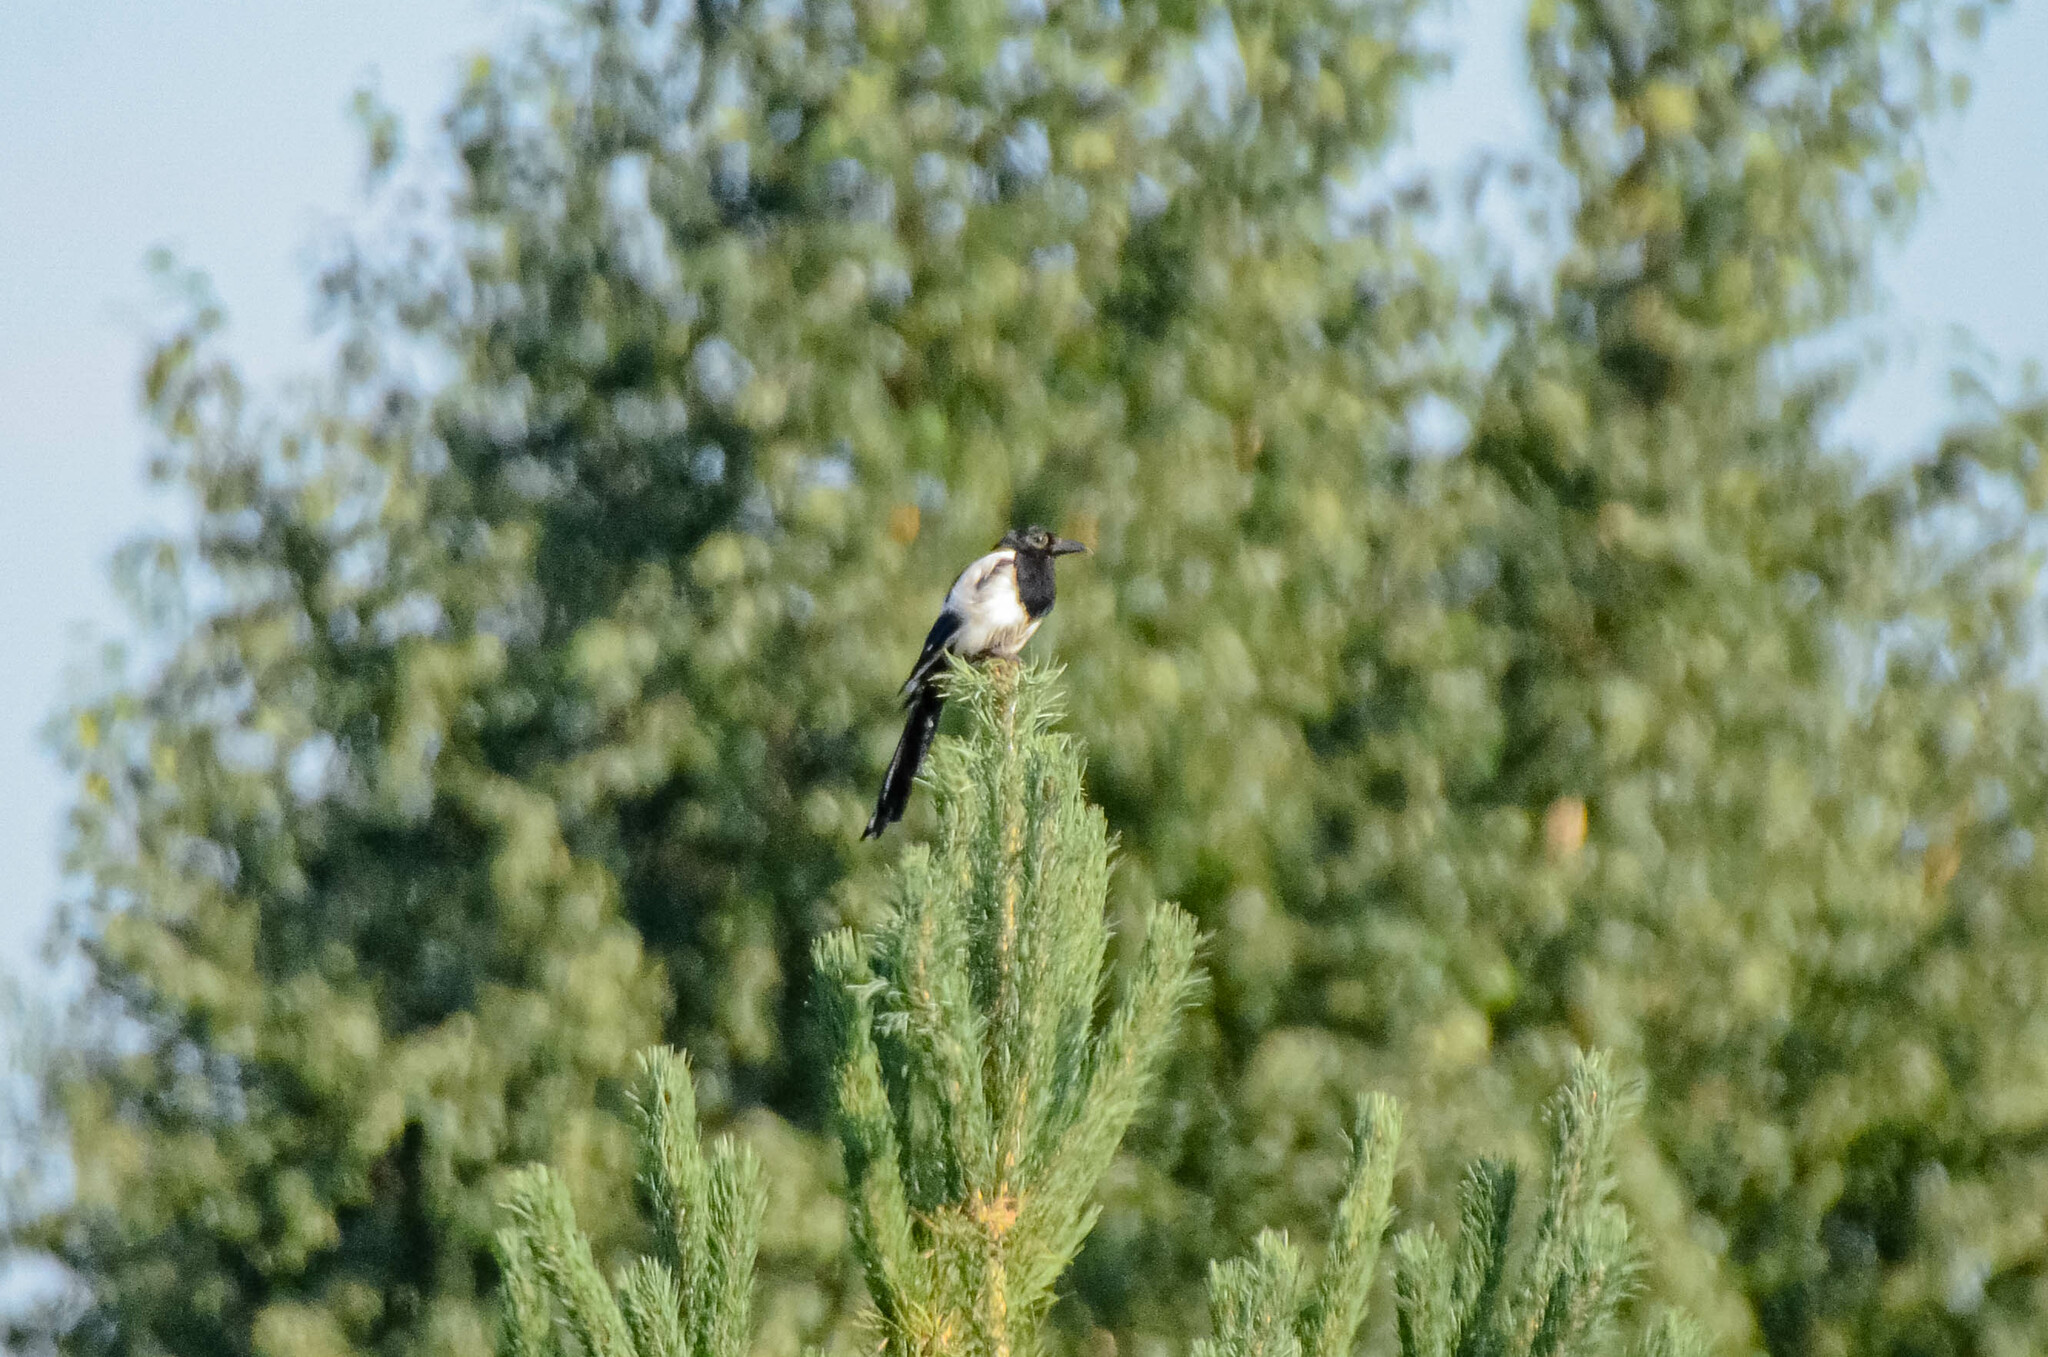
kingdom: Animalia
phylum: Chordata
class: Aves
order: Passeriformes
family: Corvidae
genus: Pica
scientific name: Pica pica
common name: Eurasian magpie
